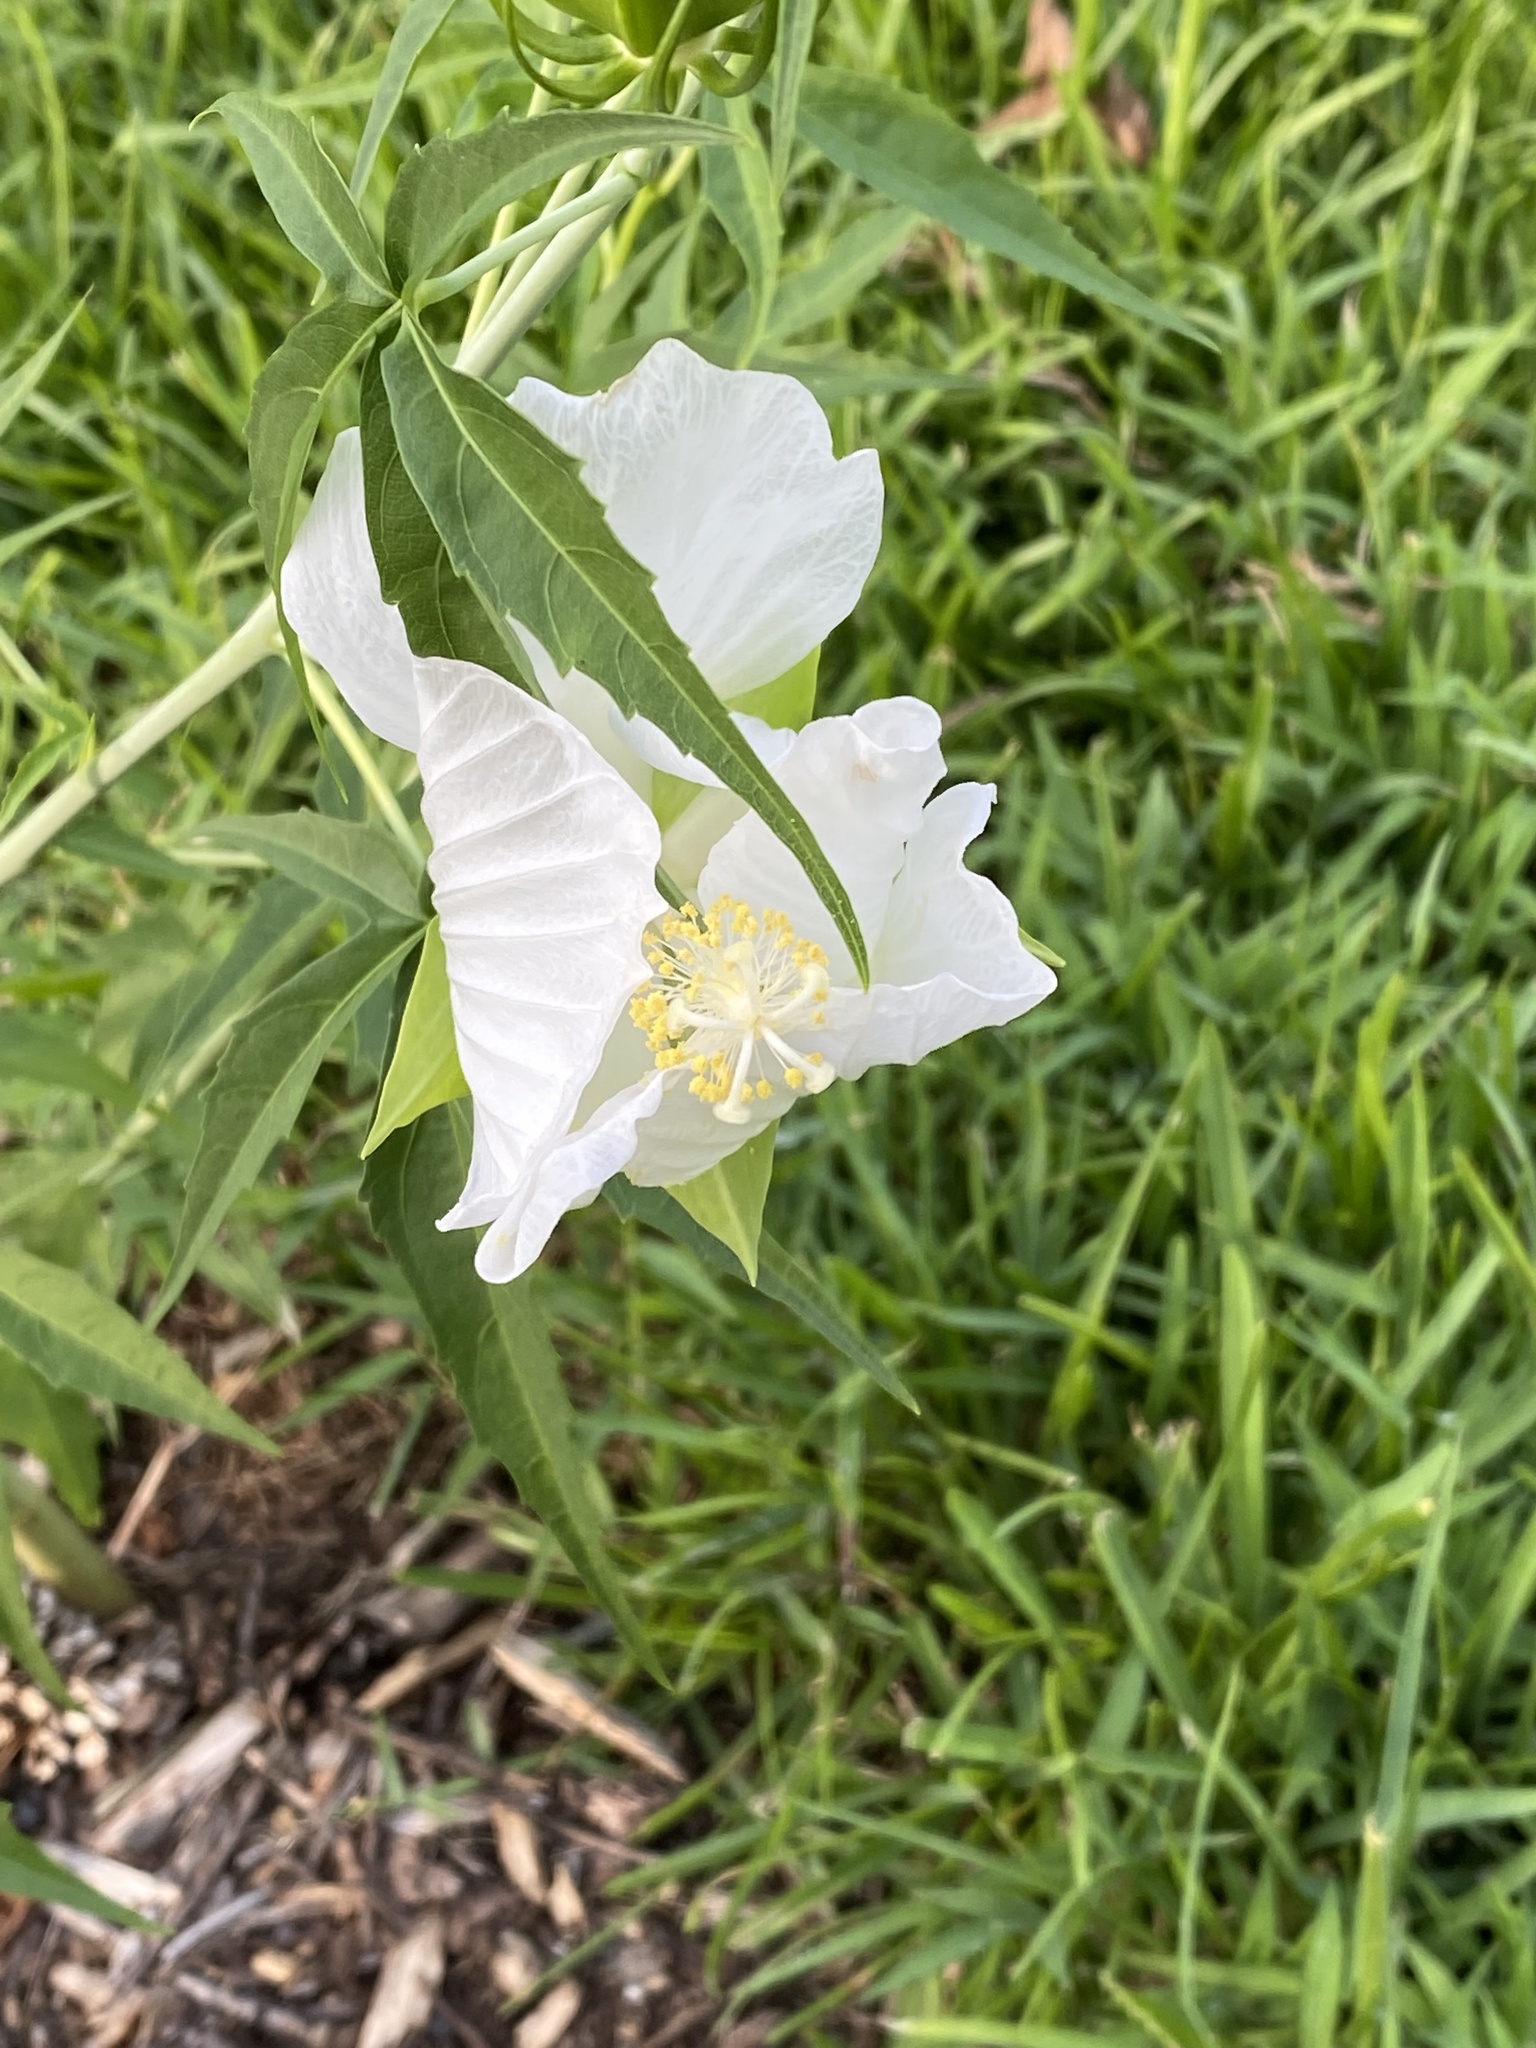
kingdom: Plantae
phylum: Tracheophyta
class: Magnoliopsida
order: Malvales
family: Malvaceae
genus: Hibiscus
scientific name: Hibiscus coccineus
